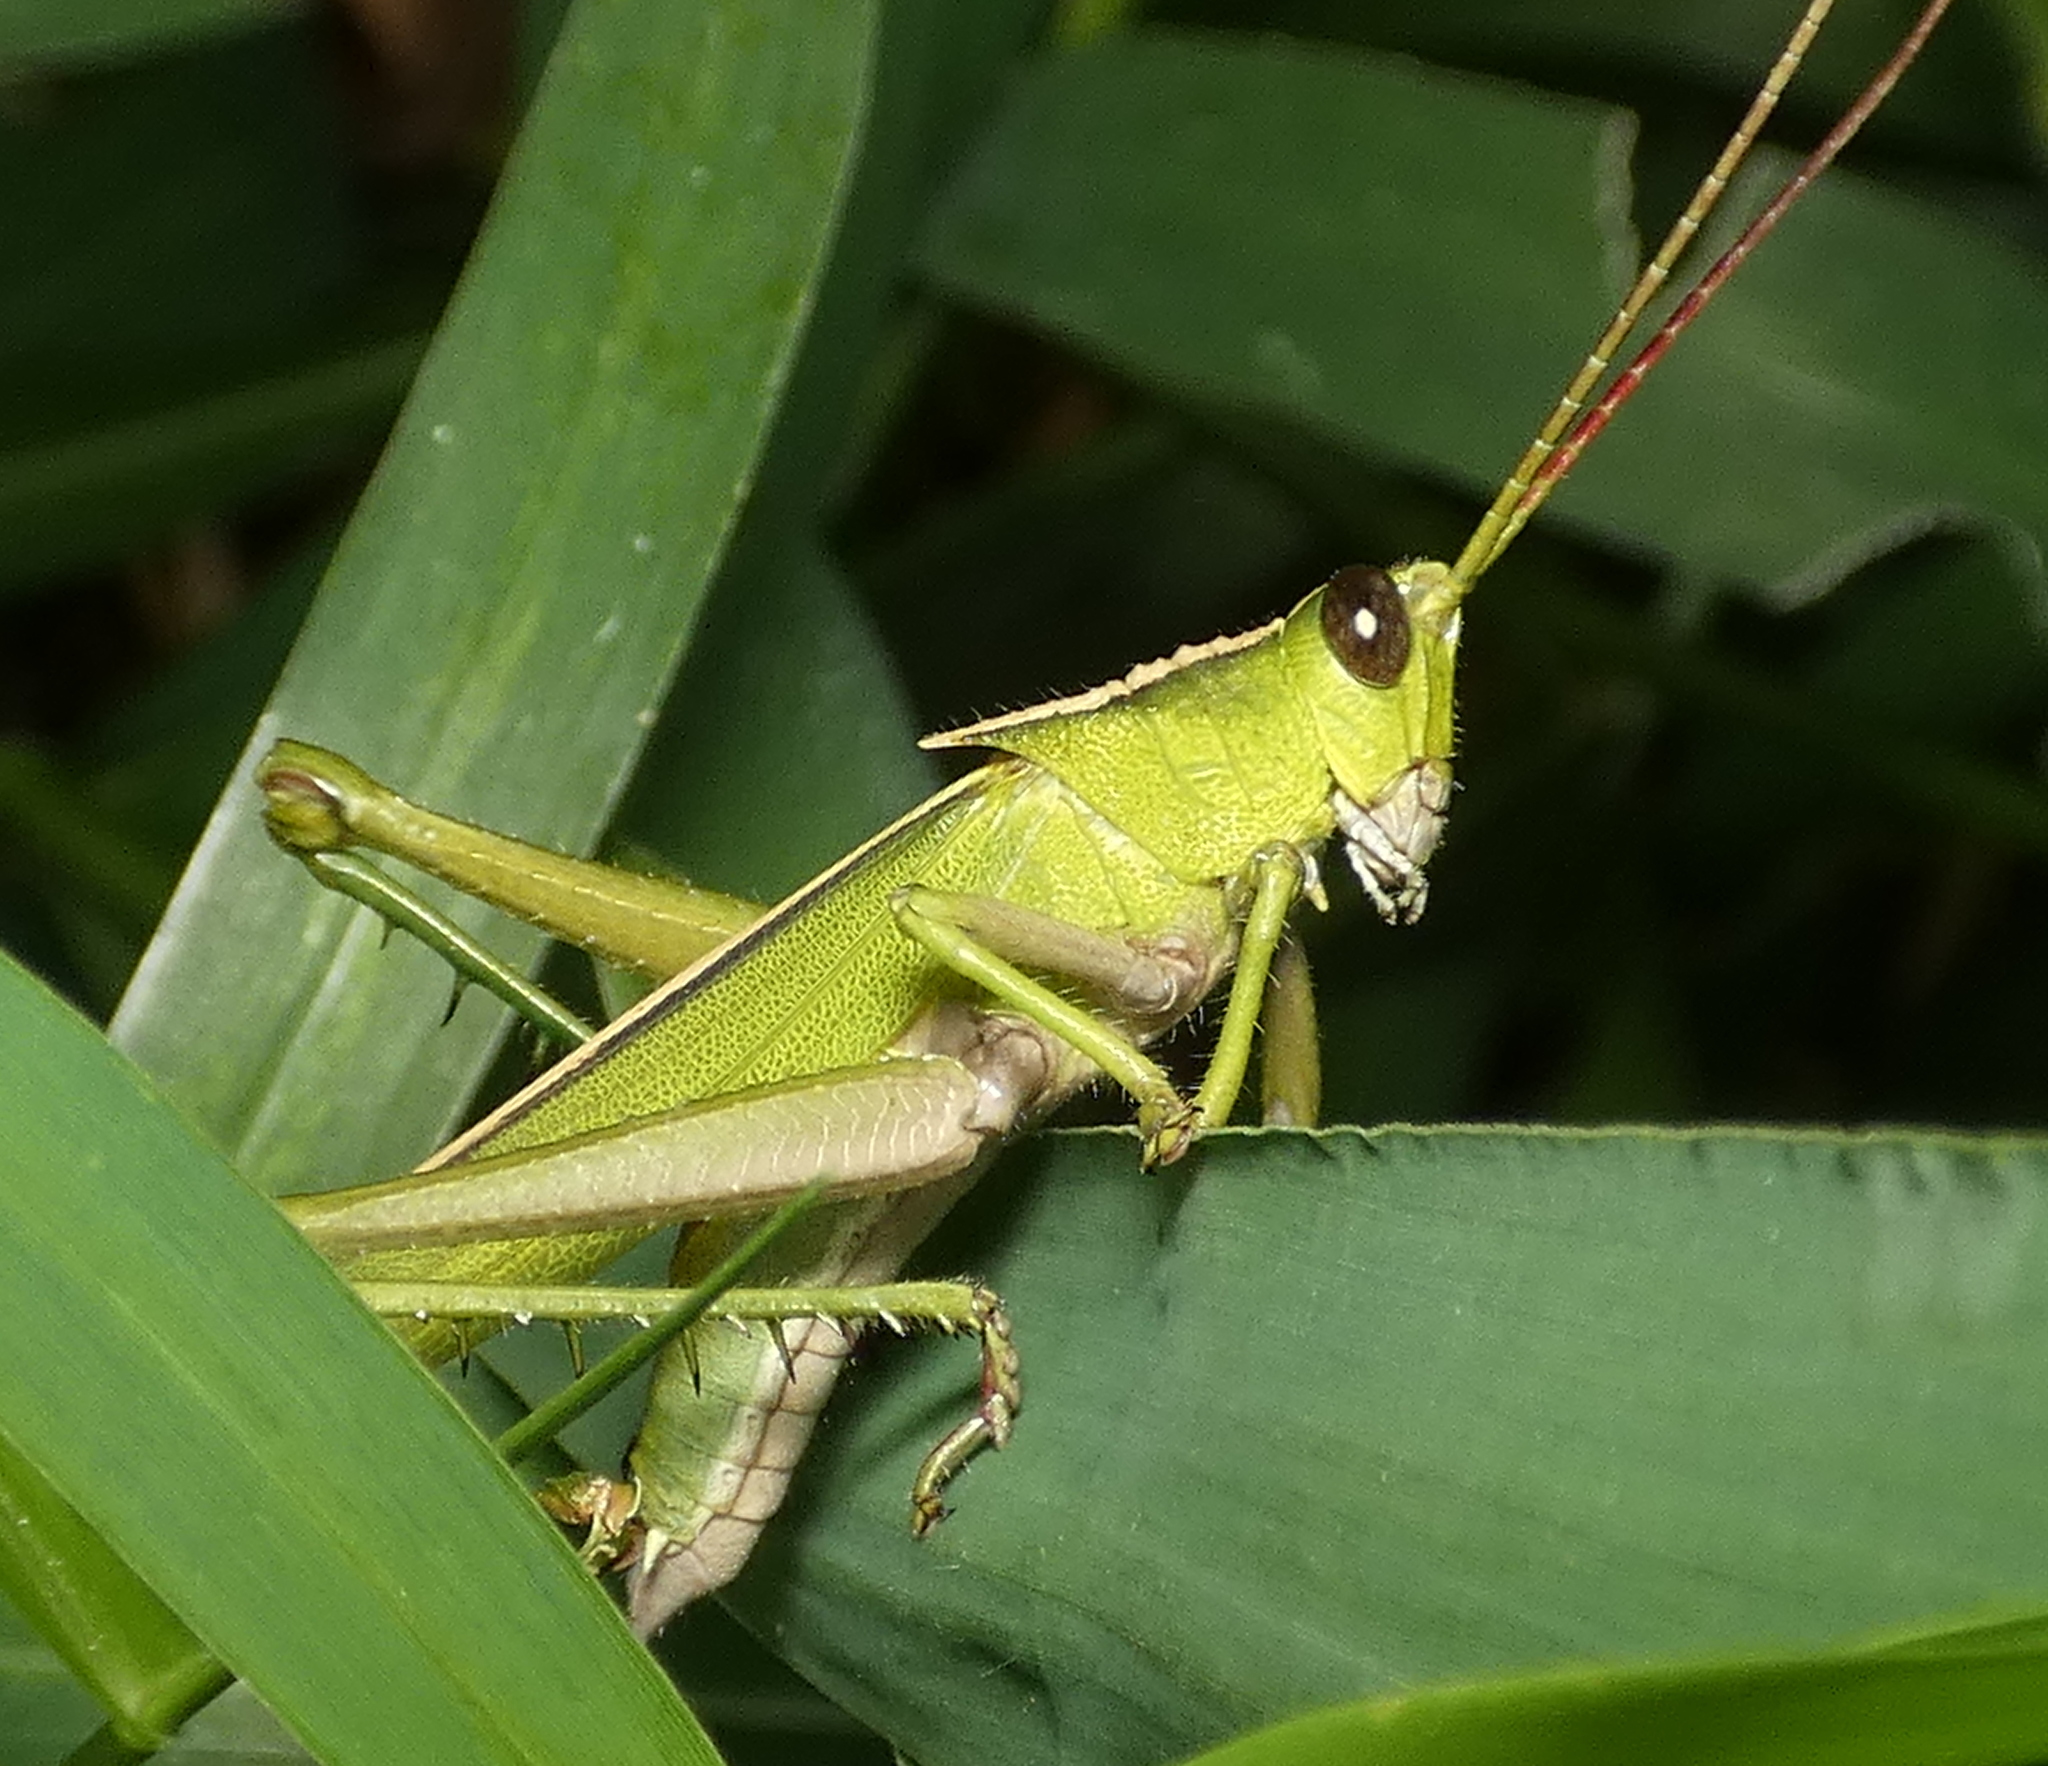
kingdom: Animalia
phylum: Arthropoda
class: Insecta
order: Orthoptera
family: Romaleidae
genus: Agriacris
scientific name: Agriacris auripennis
